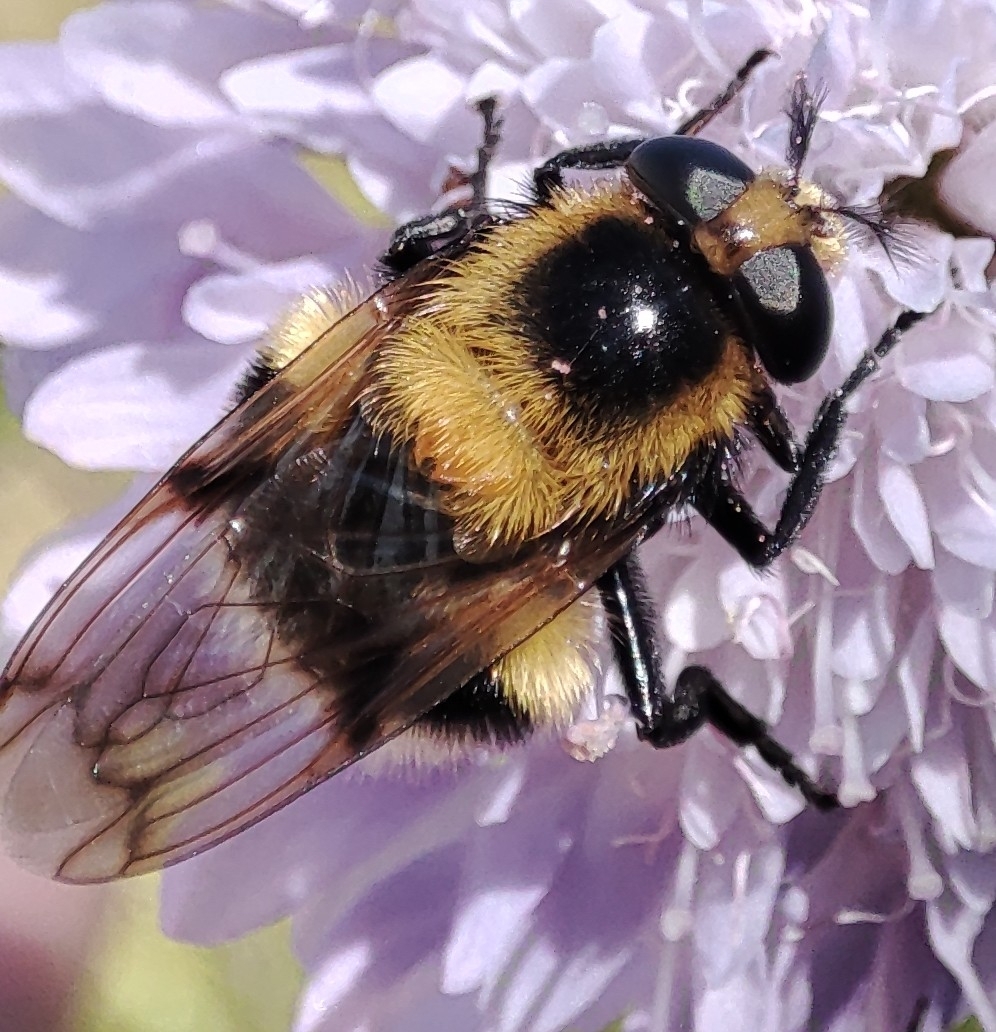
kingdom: Animalia
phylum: Arthropoda
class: Insecta
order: Diptera
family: Syrphidae
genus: Volucella
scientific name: Volucella bombylans
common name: Bumble bee hover fly
